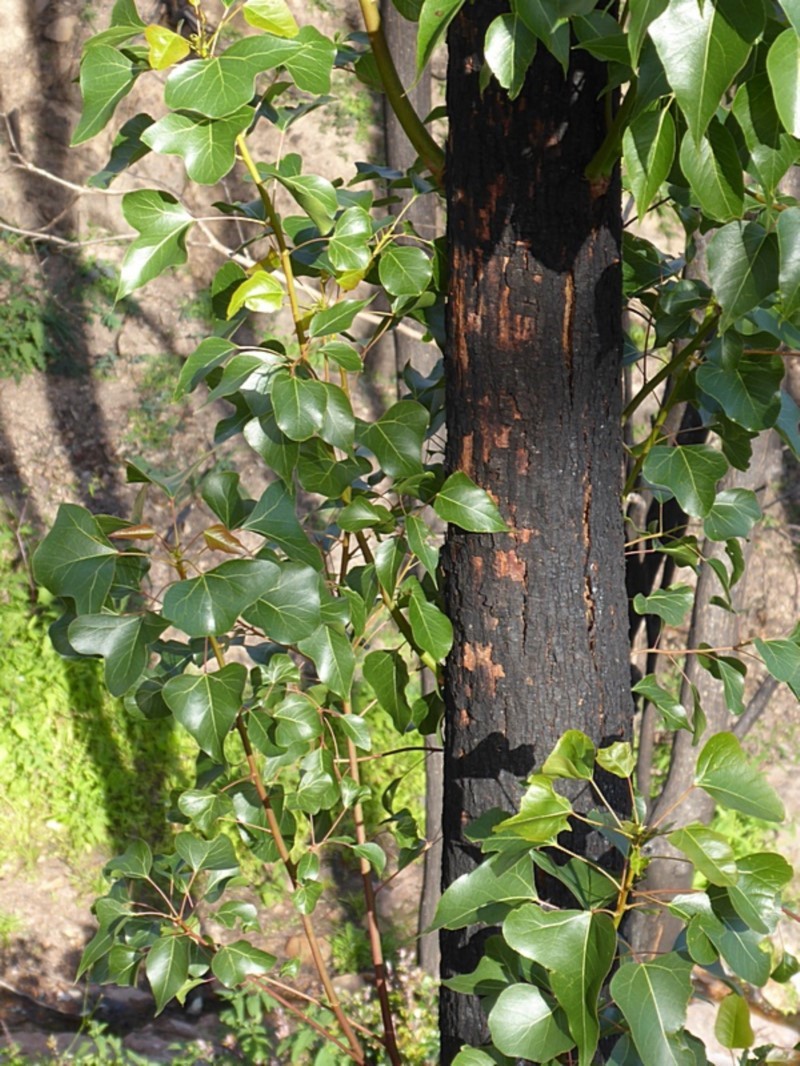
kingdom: Plantae
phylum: Tracheophyta
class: Magnoliopsida
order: Malvales
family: Malvaceae
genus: Brachychiton
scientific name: Brachychiton populneus
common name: Kurrajong
